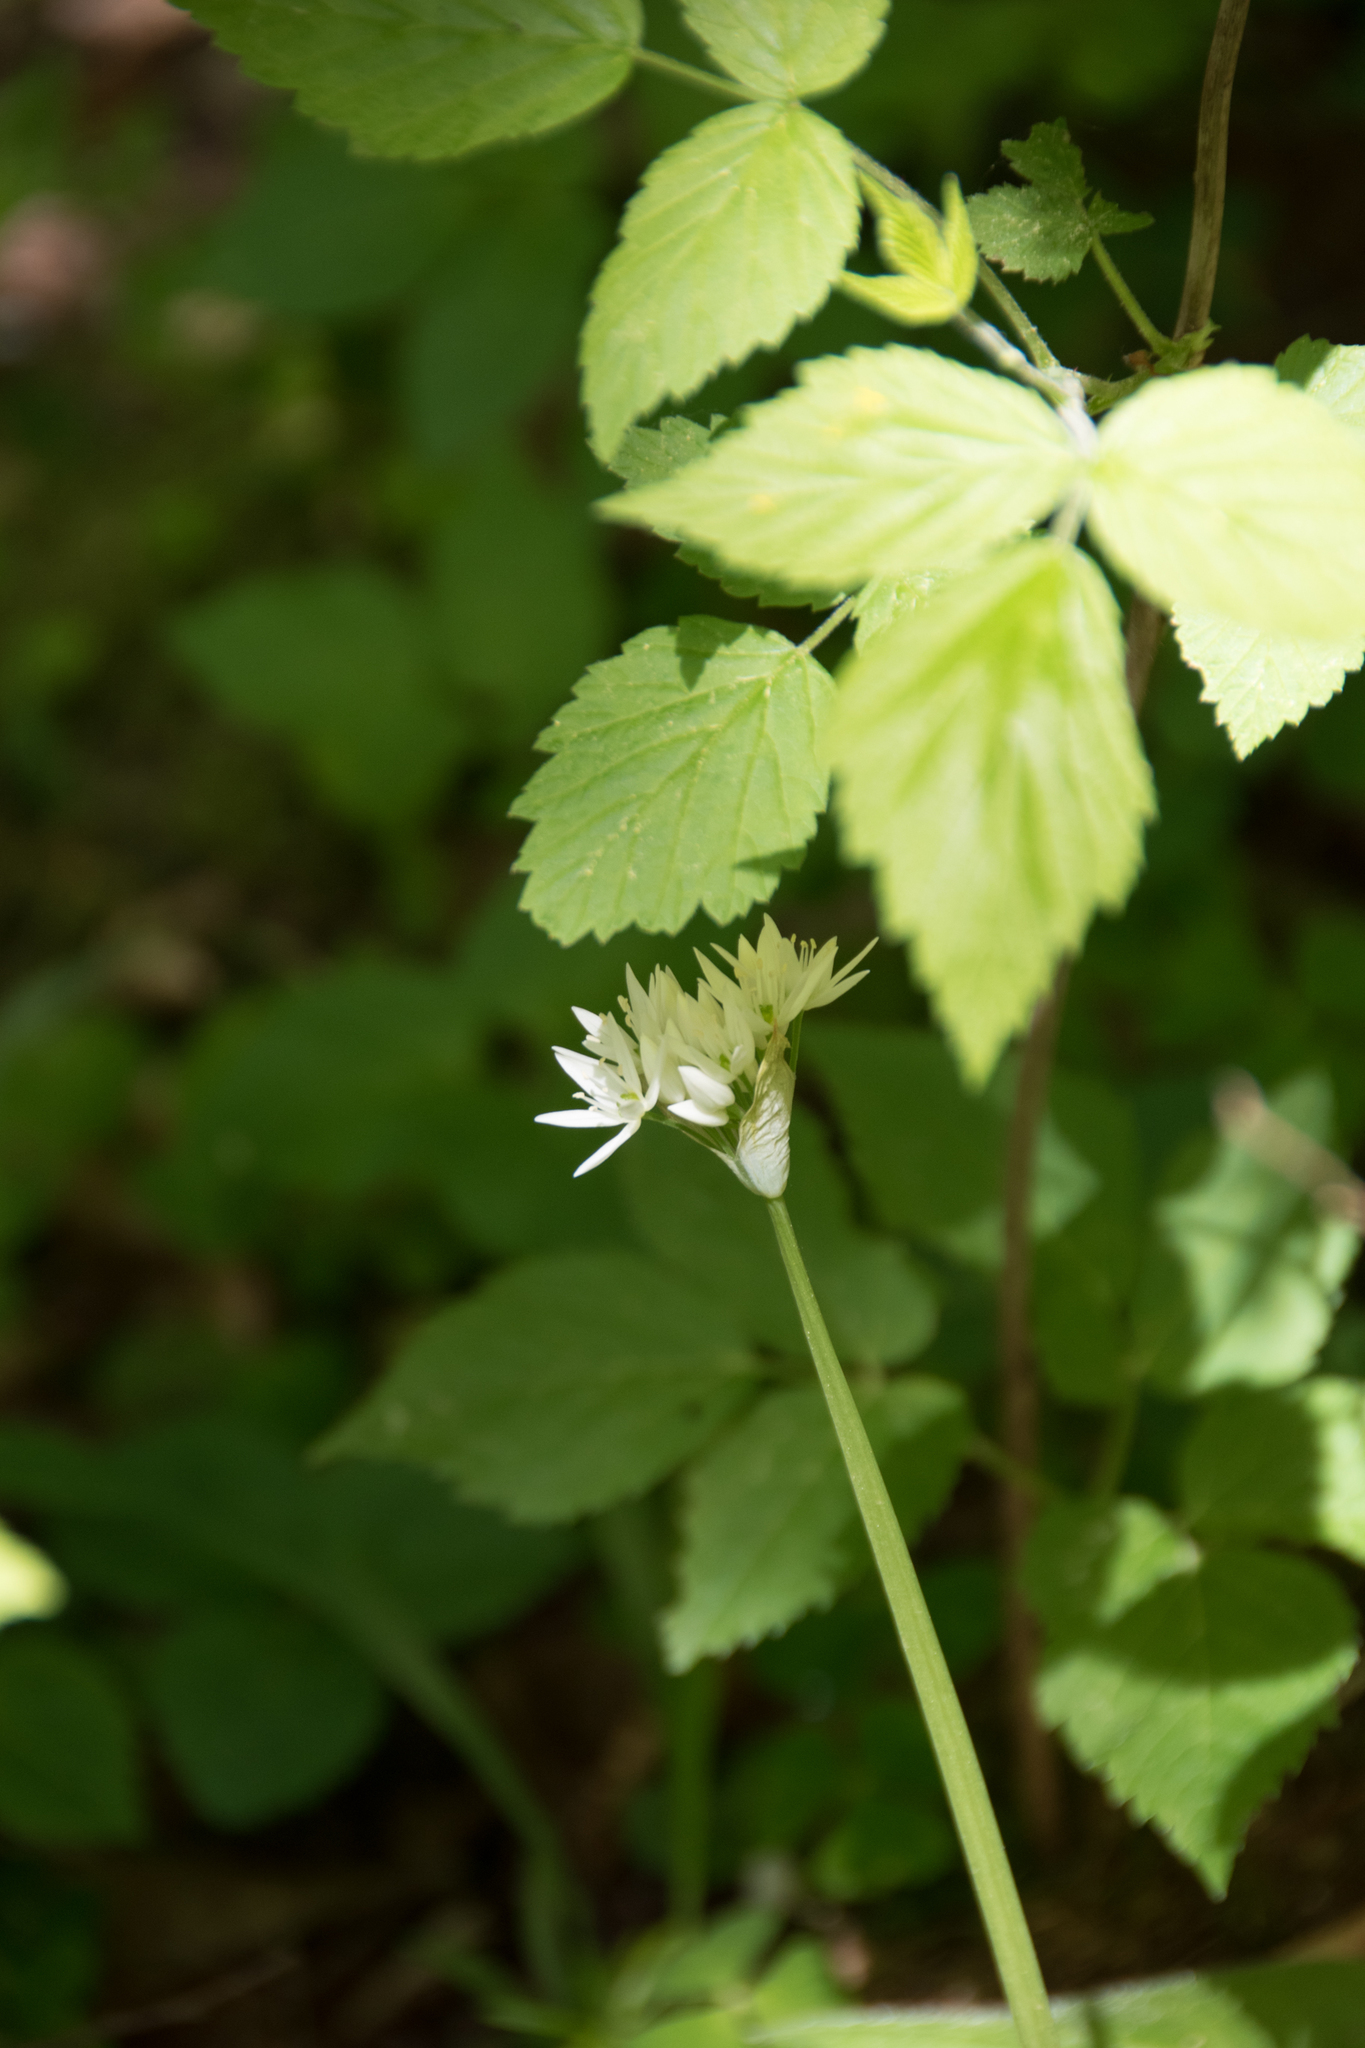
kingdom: Plantae
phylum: Tracheophyta
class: Liliopsida
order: Asparagales
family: Amaryllidaceae
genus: Allium
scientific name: Allium ursinum
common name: Ramsons
